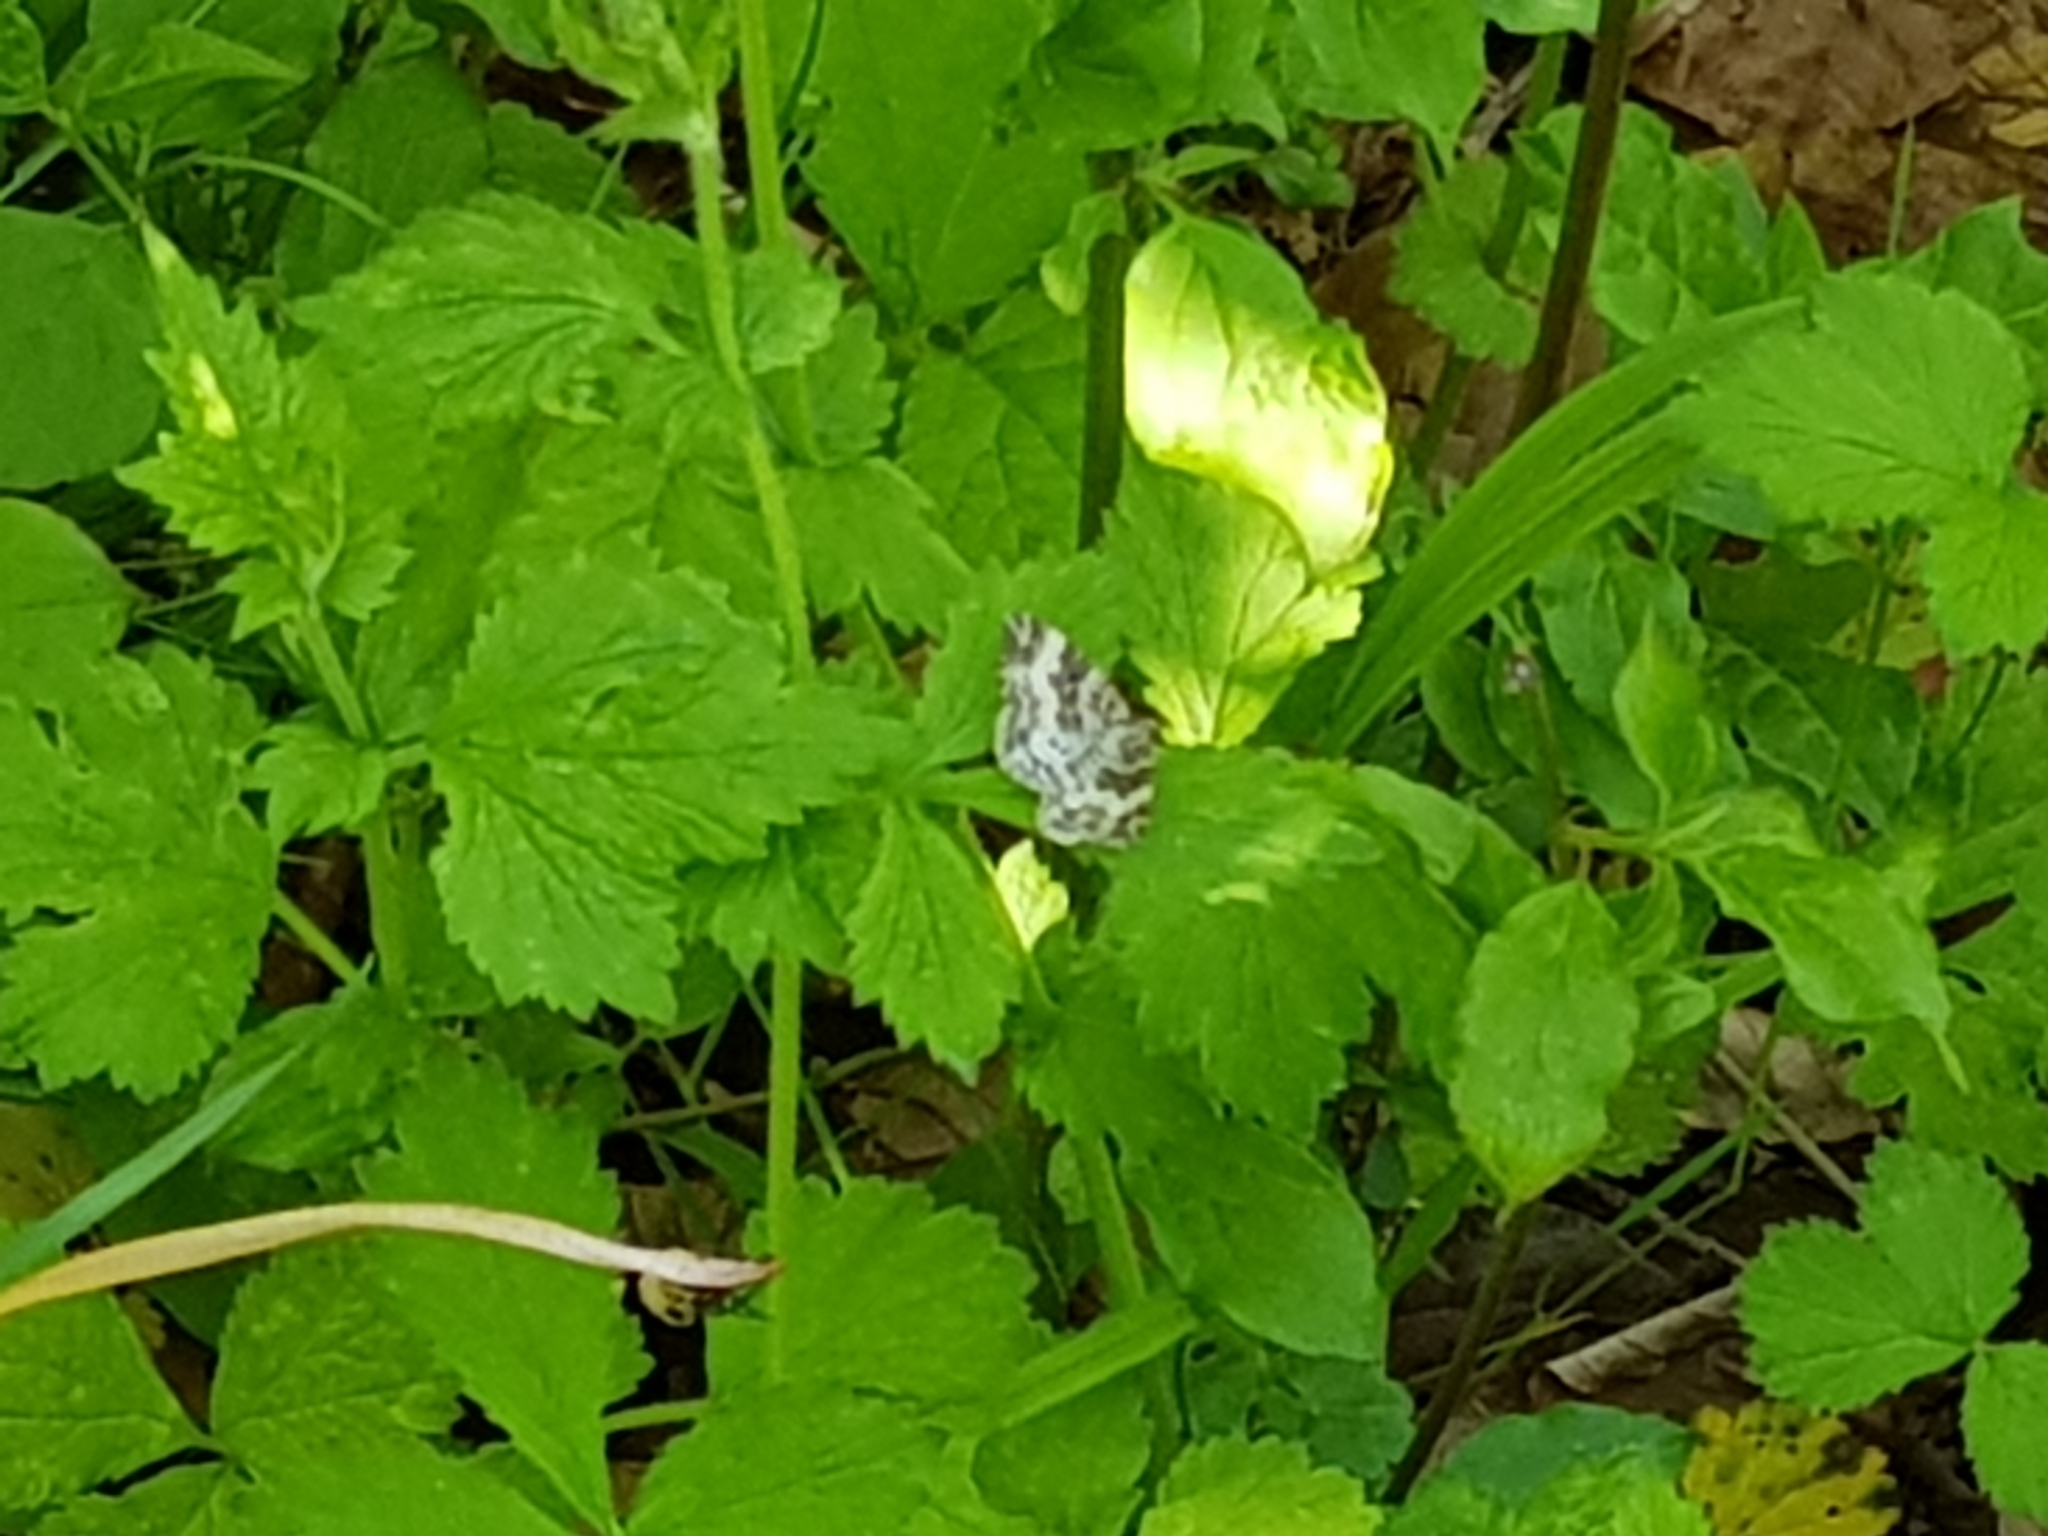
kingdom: Animalia
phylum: Arthropoda
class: Insecta
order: Lepidoptera
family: Geometridae
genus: Epirrhoe
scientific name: Epirrhoe alternata
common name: Common carpet
